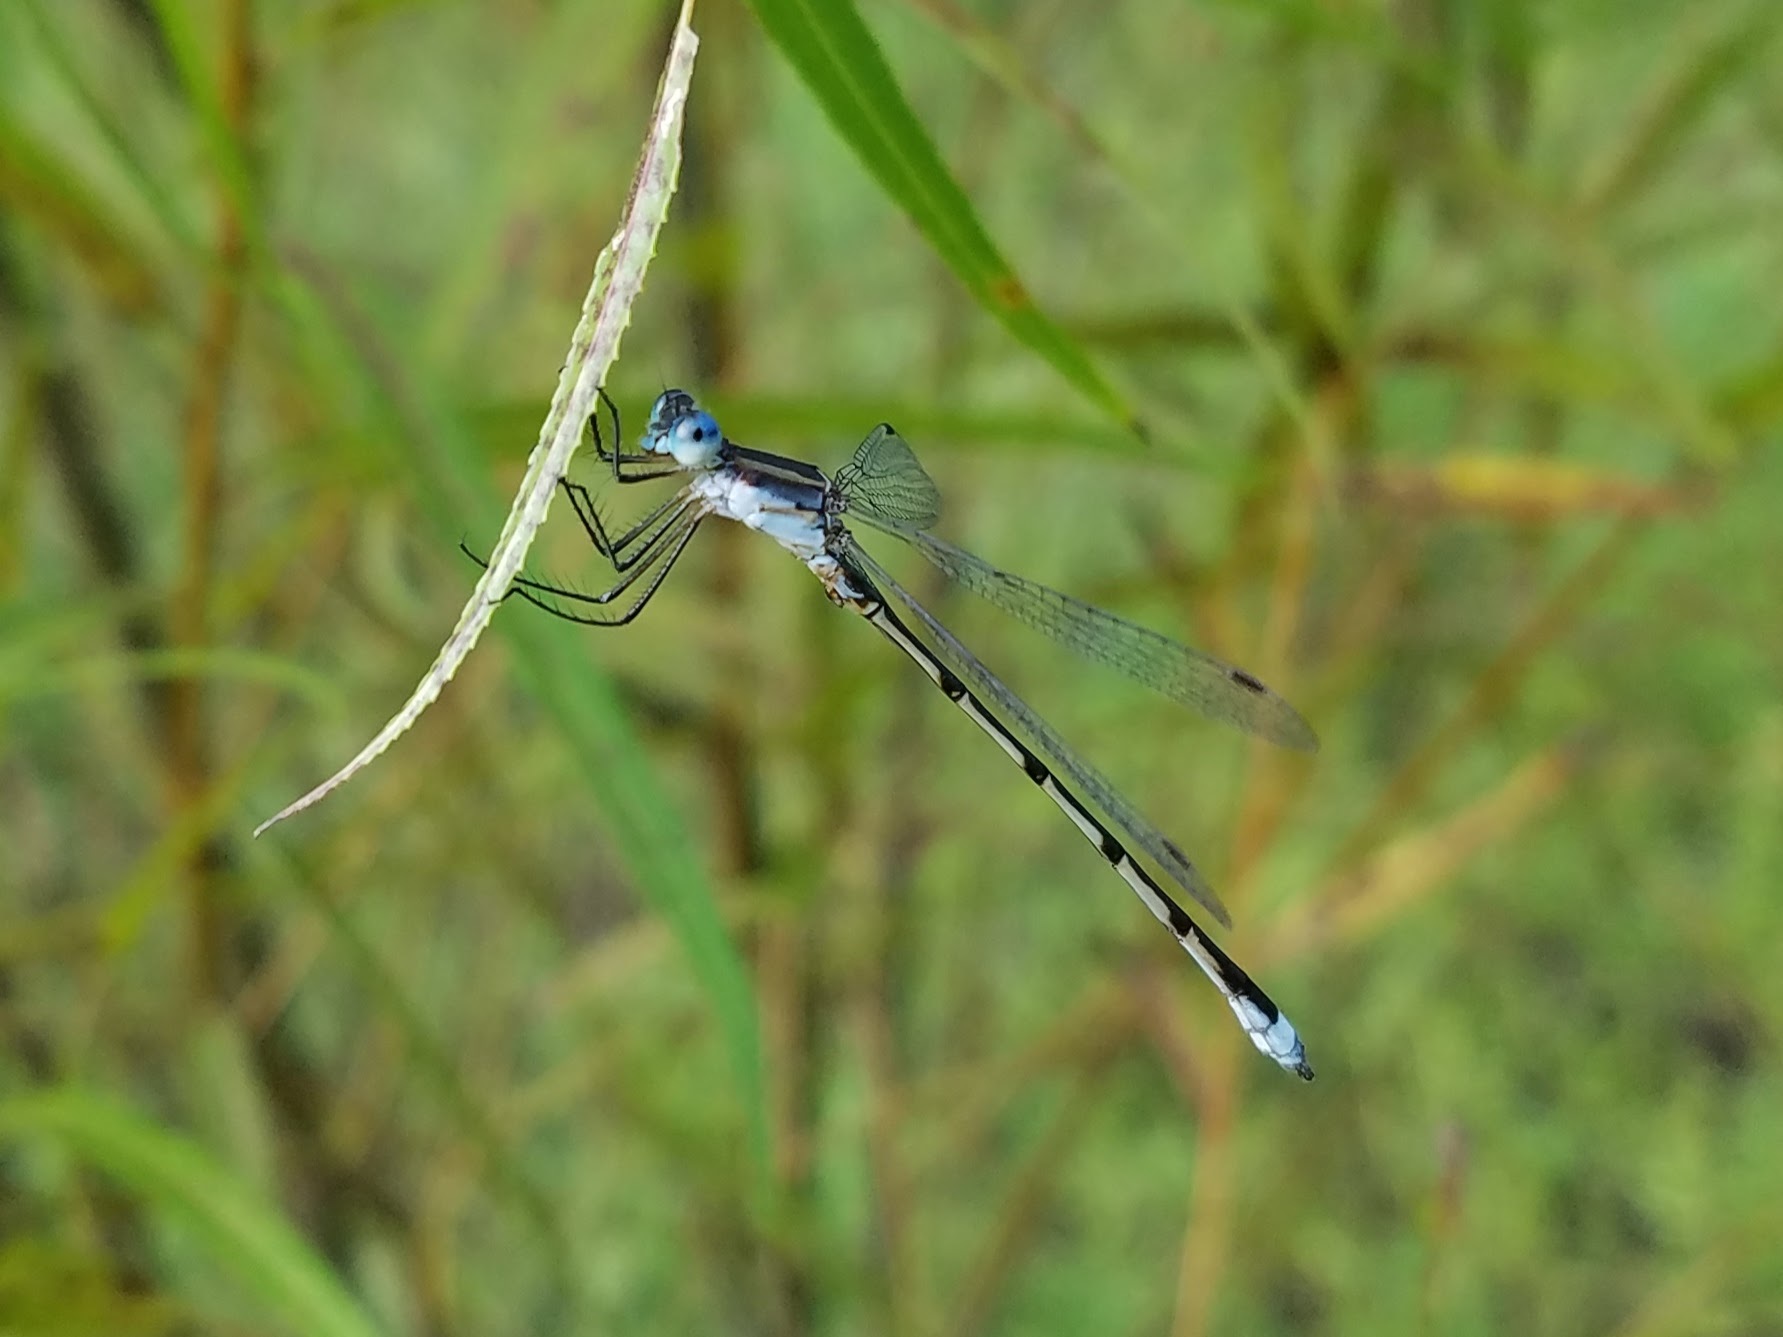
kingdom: Animalia
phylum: Arthropoda
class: Insecta
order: Odonata
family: Lestidae
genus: Lestes
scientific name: Lestes australis
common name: Southern spreadwing
